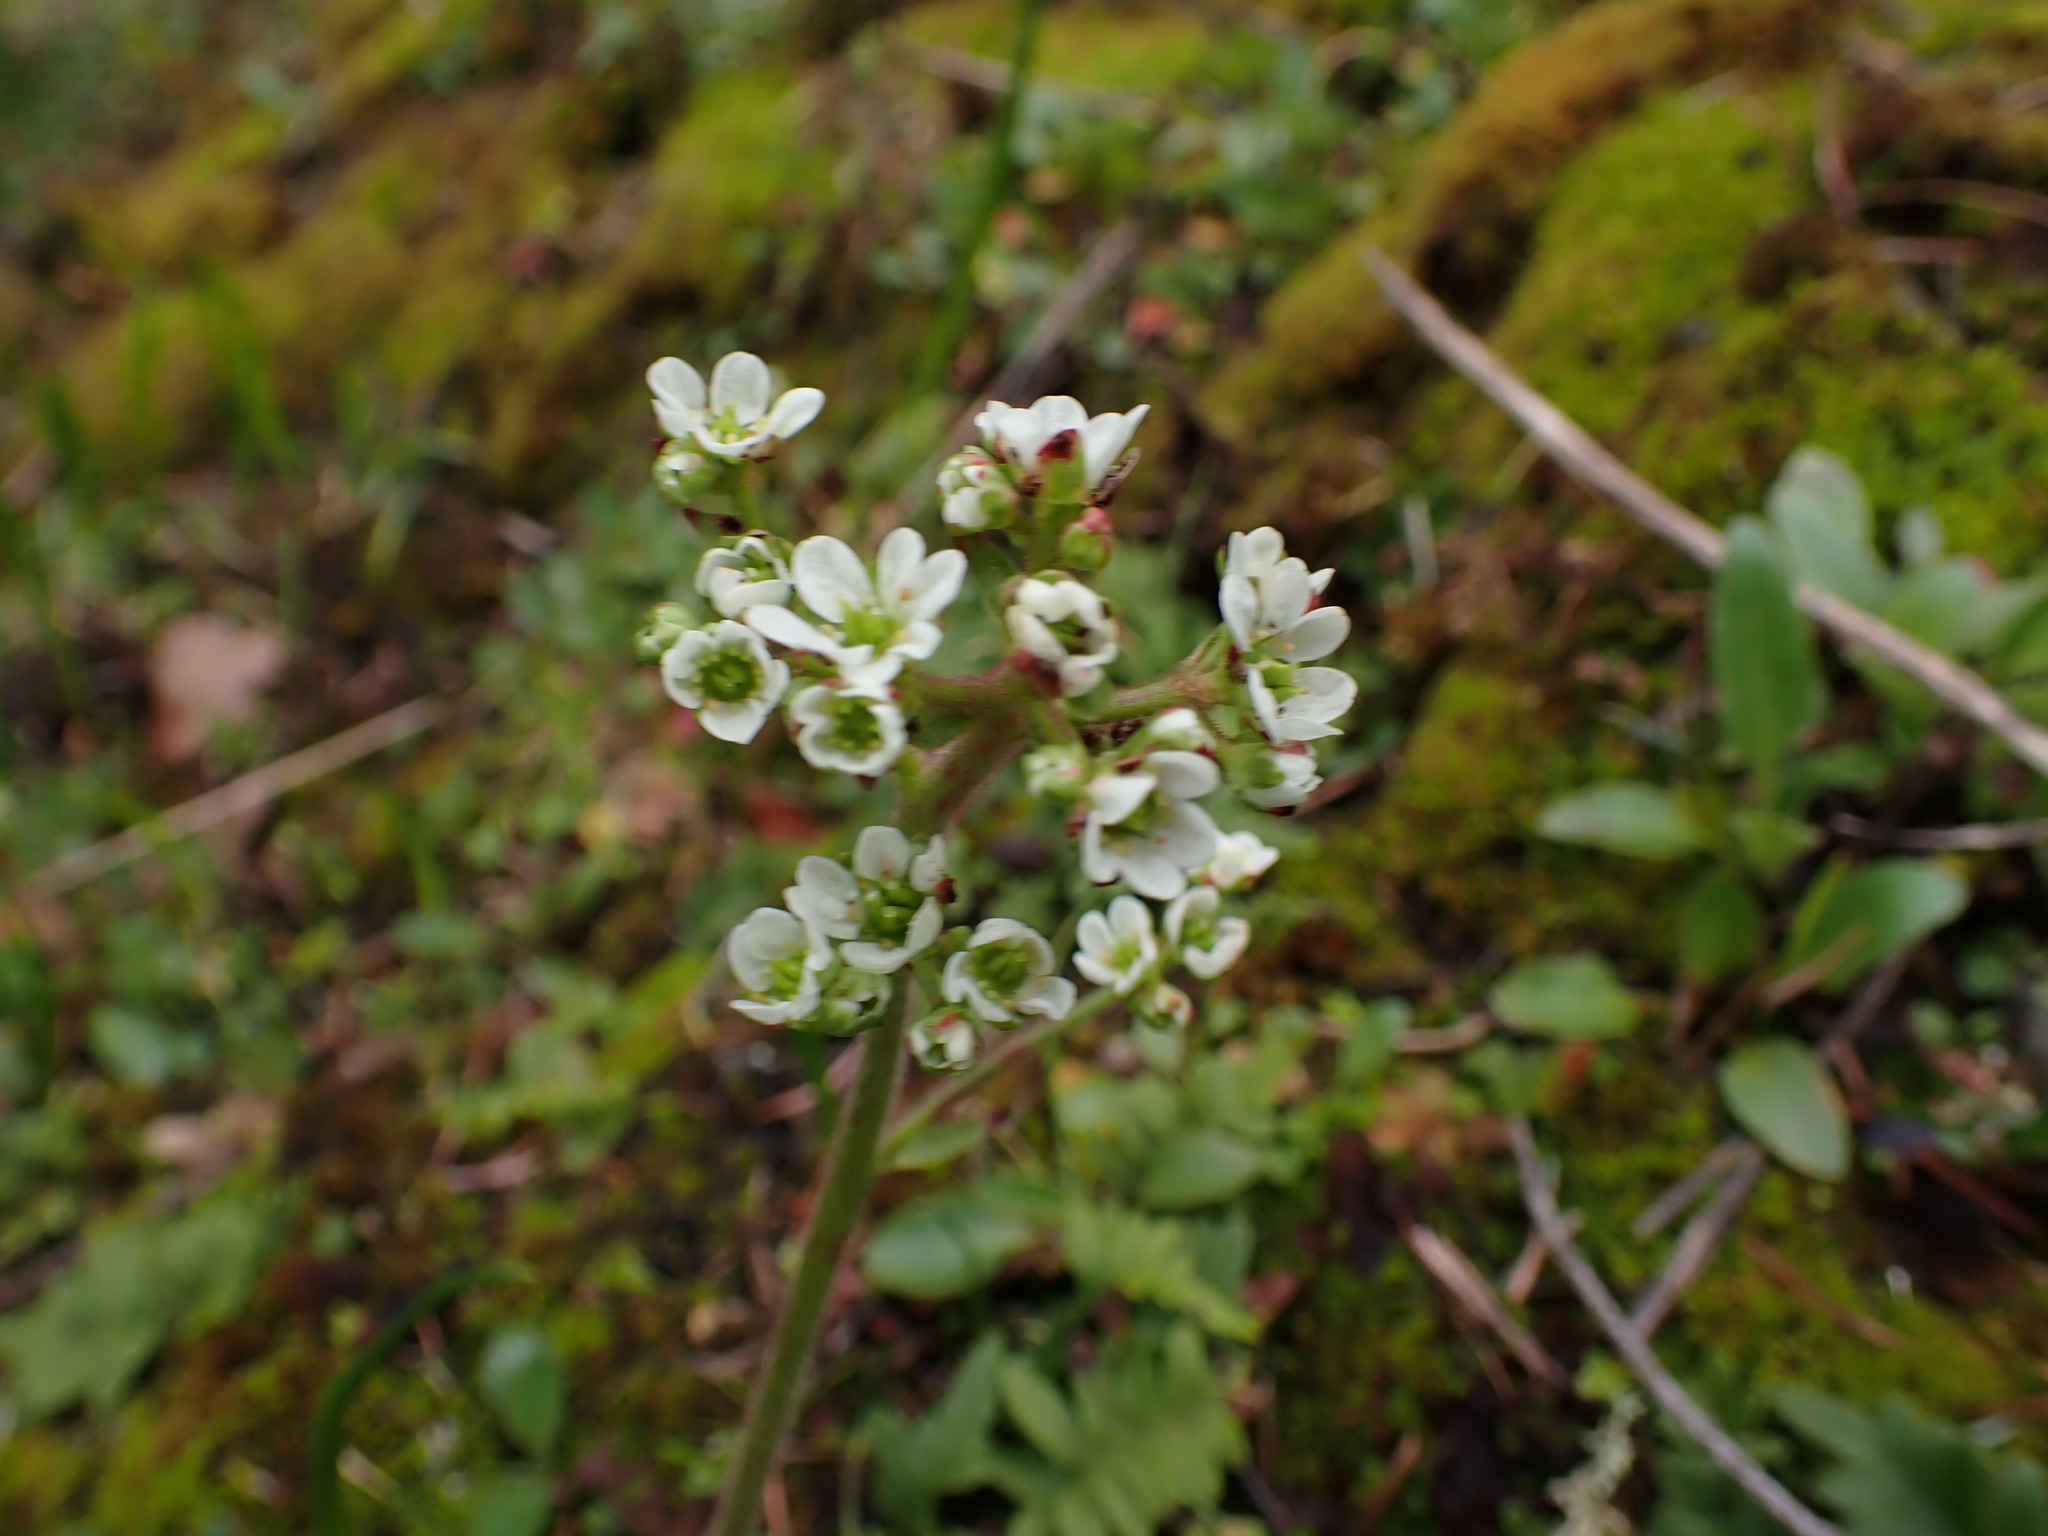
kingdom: Plantae
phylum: Tracheophyta
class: Magnoliopsida
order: Saxifragales
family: Saxifragaceae
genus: Micranthes
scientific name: Micranthes integrifolia
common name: Wholeleaf saxifrage
